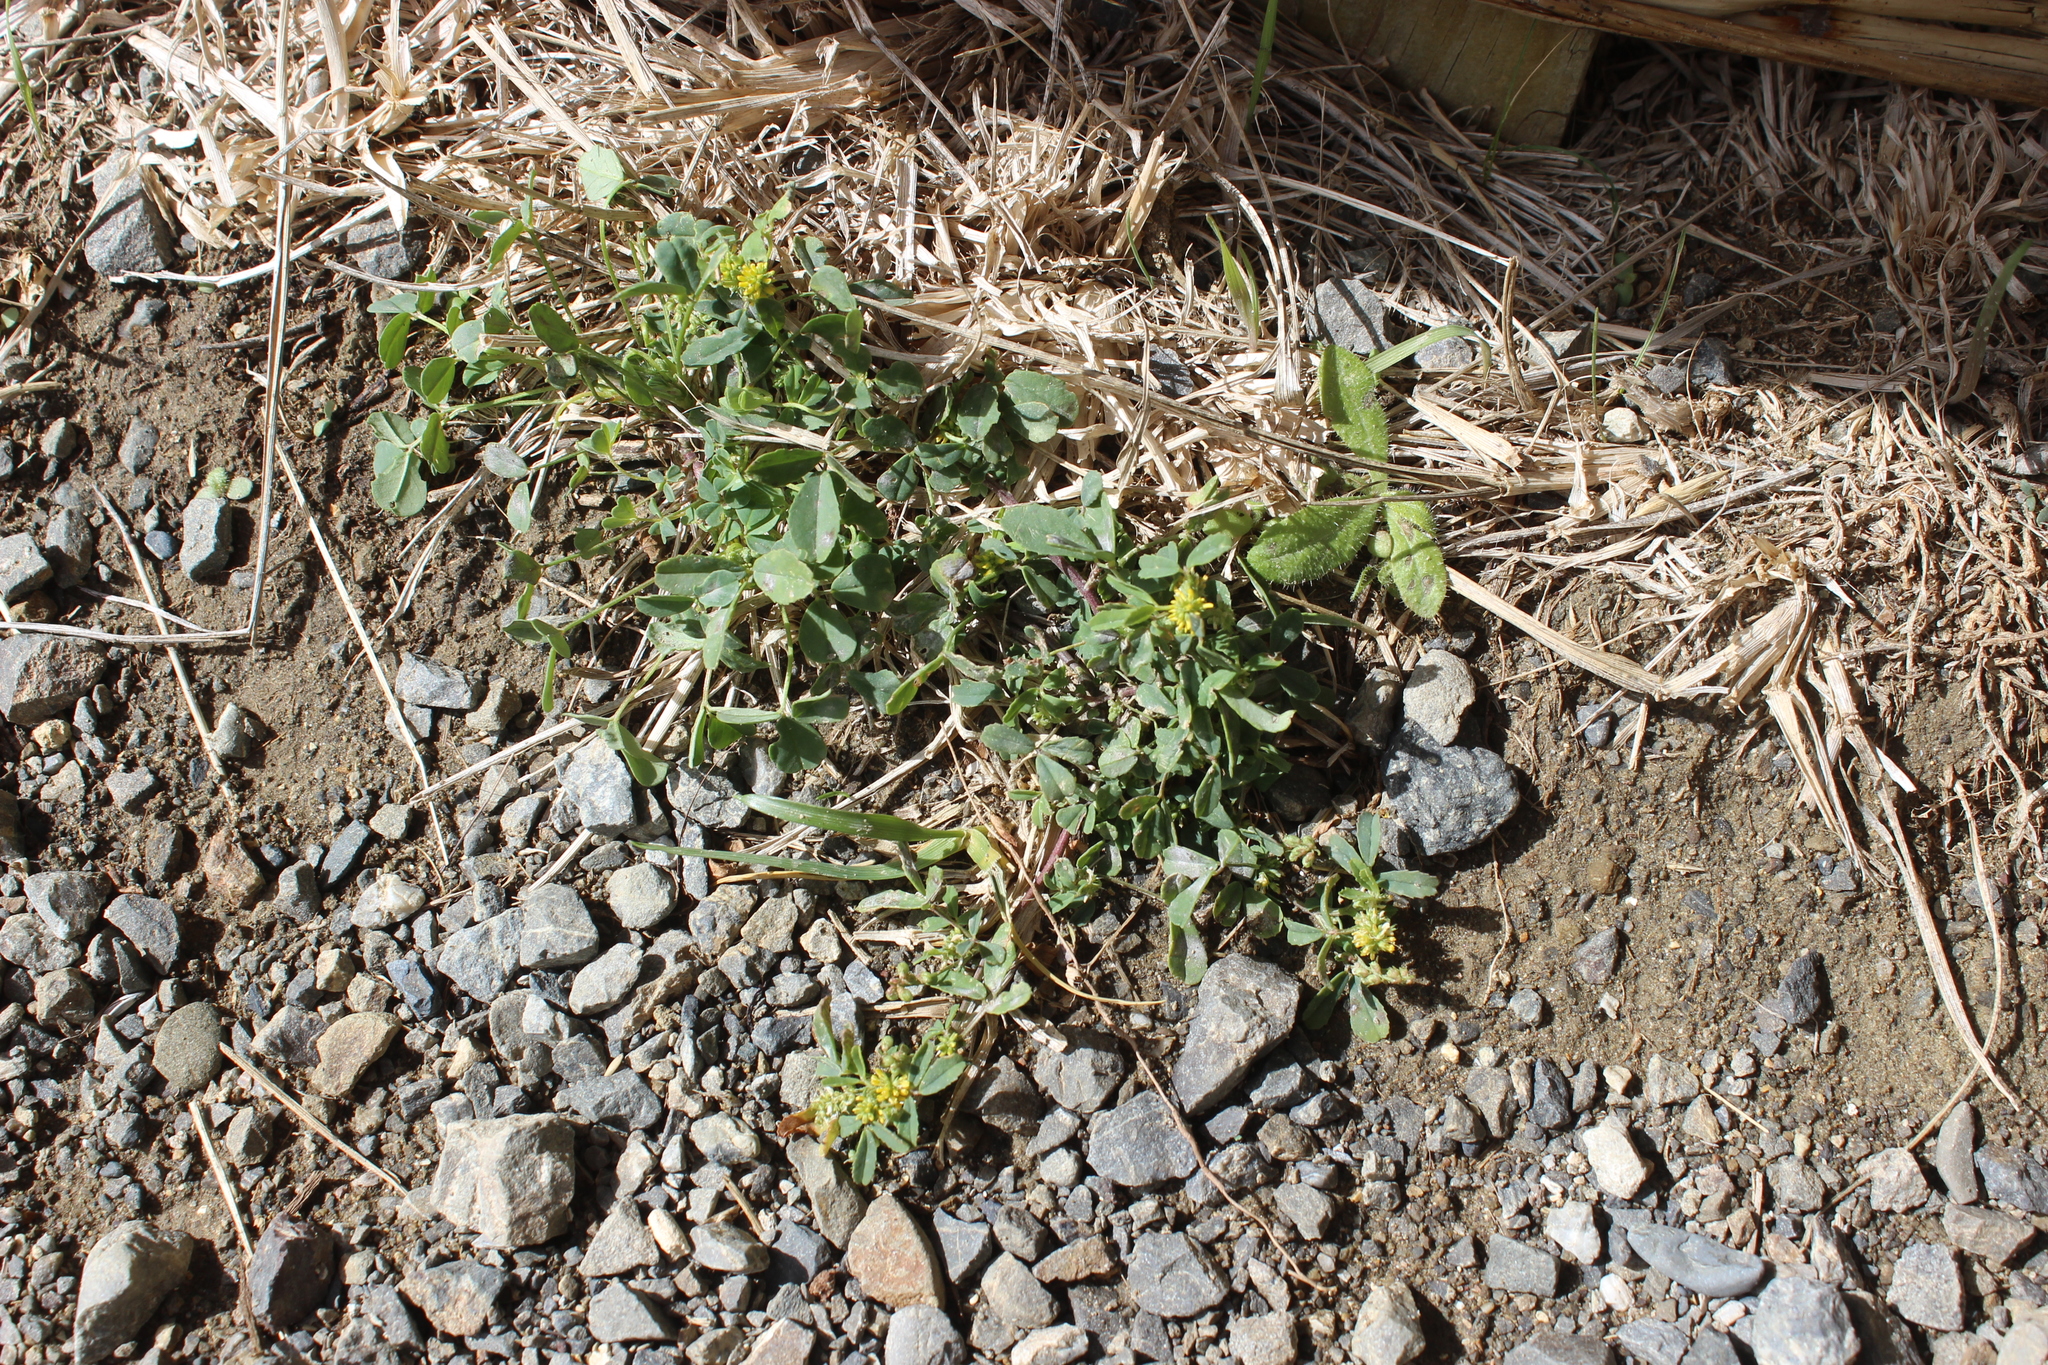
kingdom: Plantae
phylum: Tracheophyta
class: Magnoliopsida
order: Fabales
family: Fabaceae
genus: Melilotus
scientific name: Melilotus indicus
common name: Small melilot
